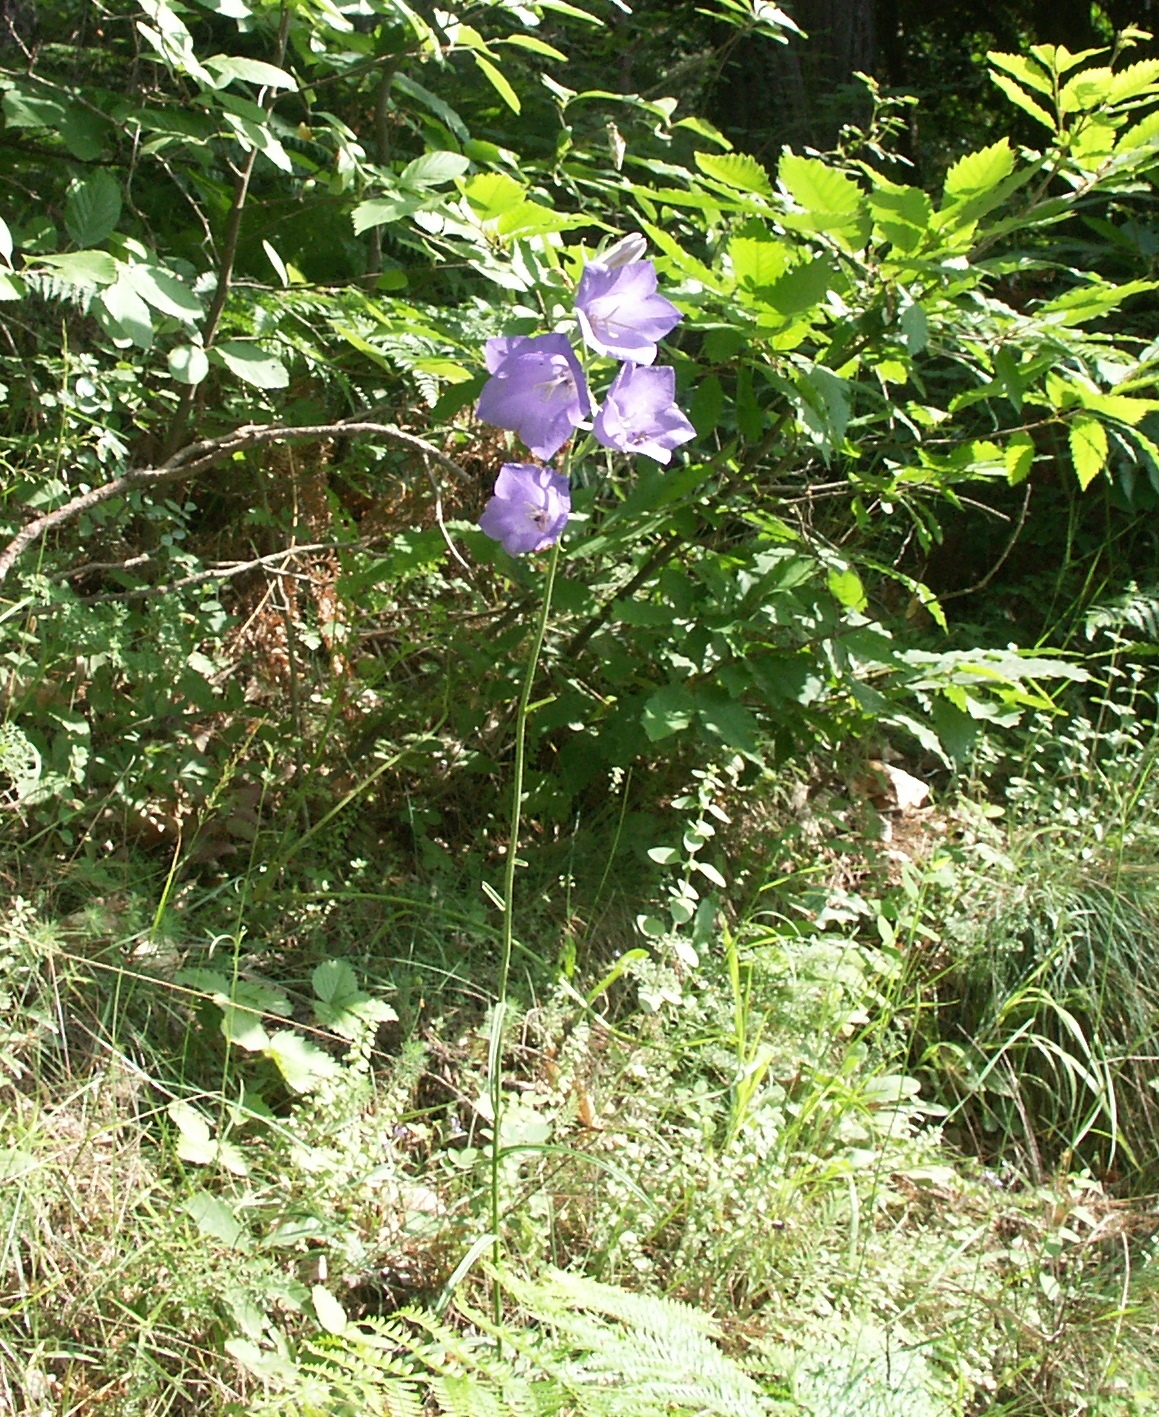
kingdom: Plantae
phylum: Tracheophyta
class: Magnoliopsida
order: Asterales
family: Campanulaceae
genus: Campanula
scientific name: Campanula persicifolia
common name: Peach-leaved bellflower
